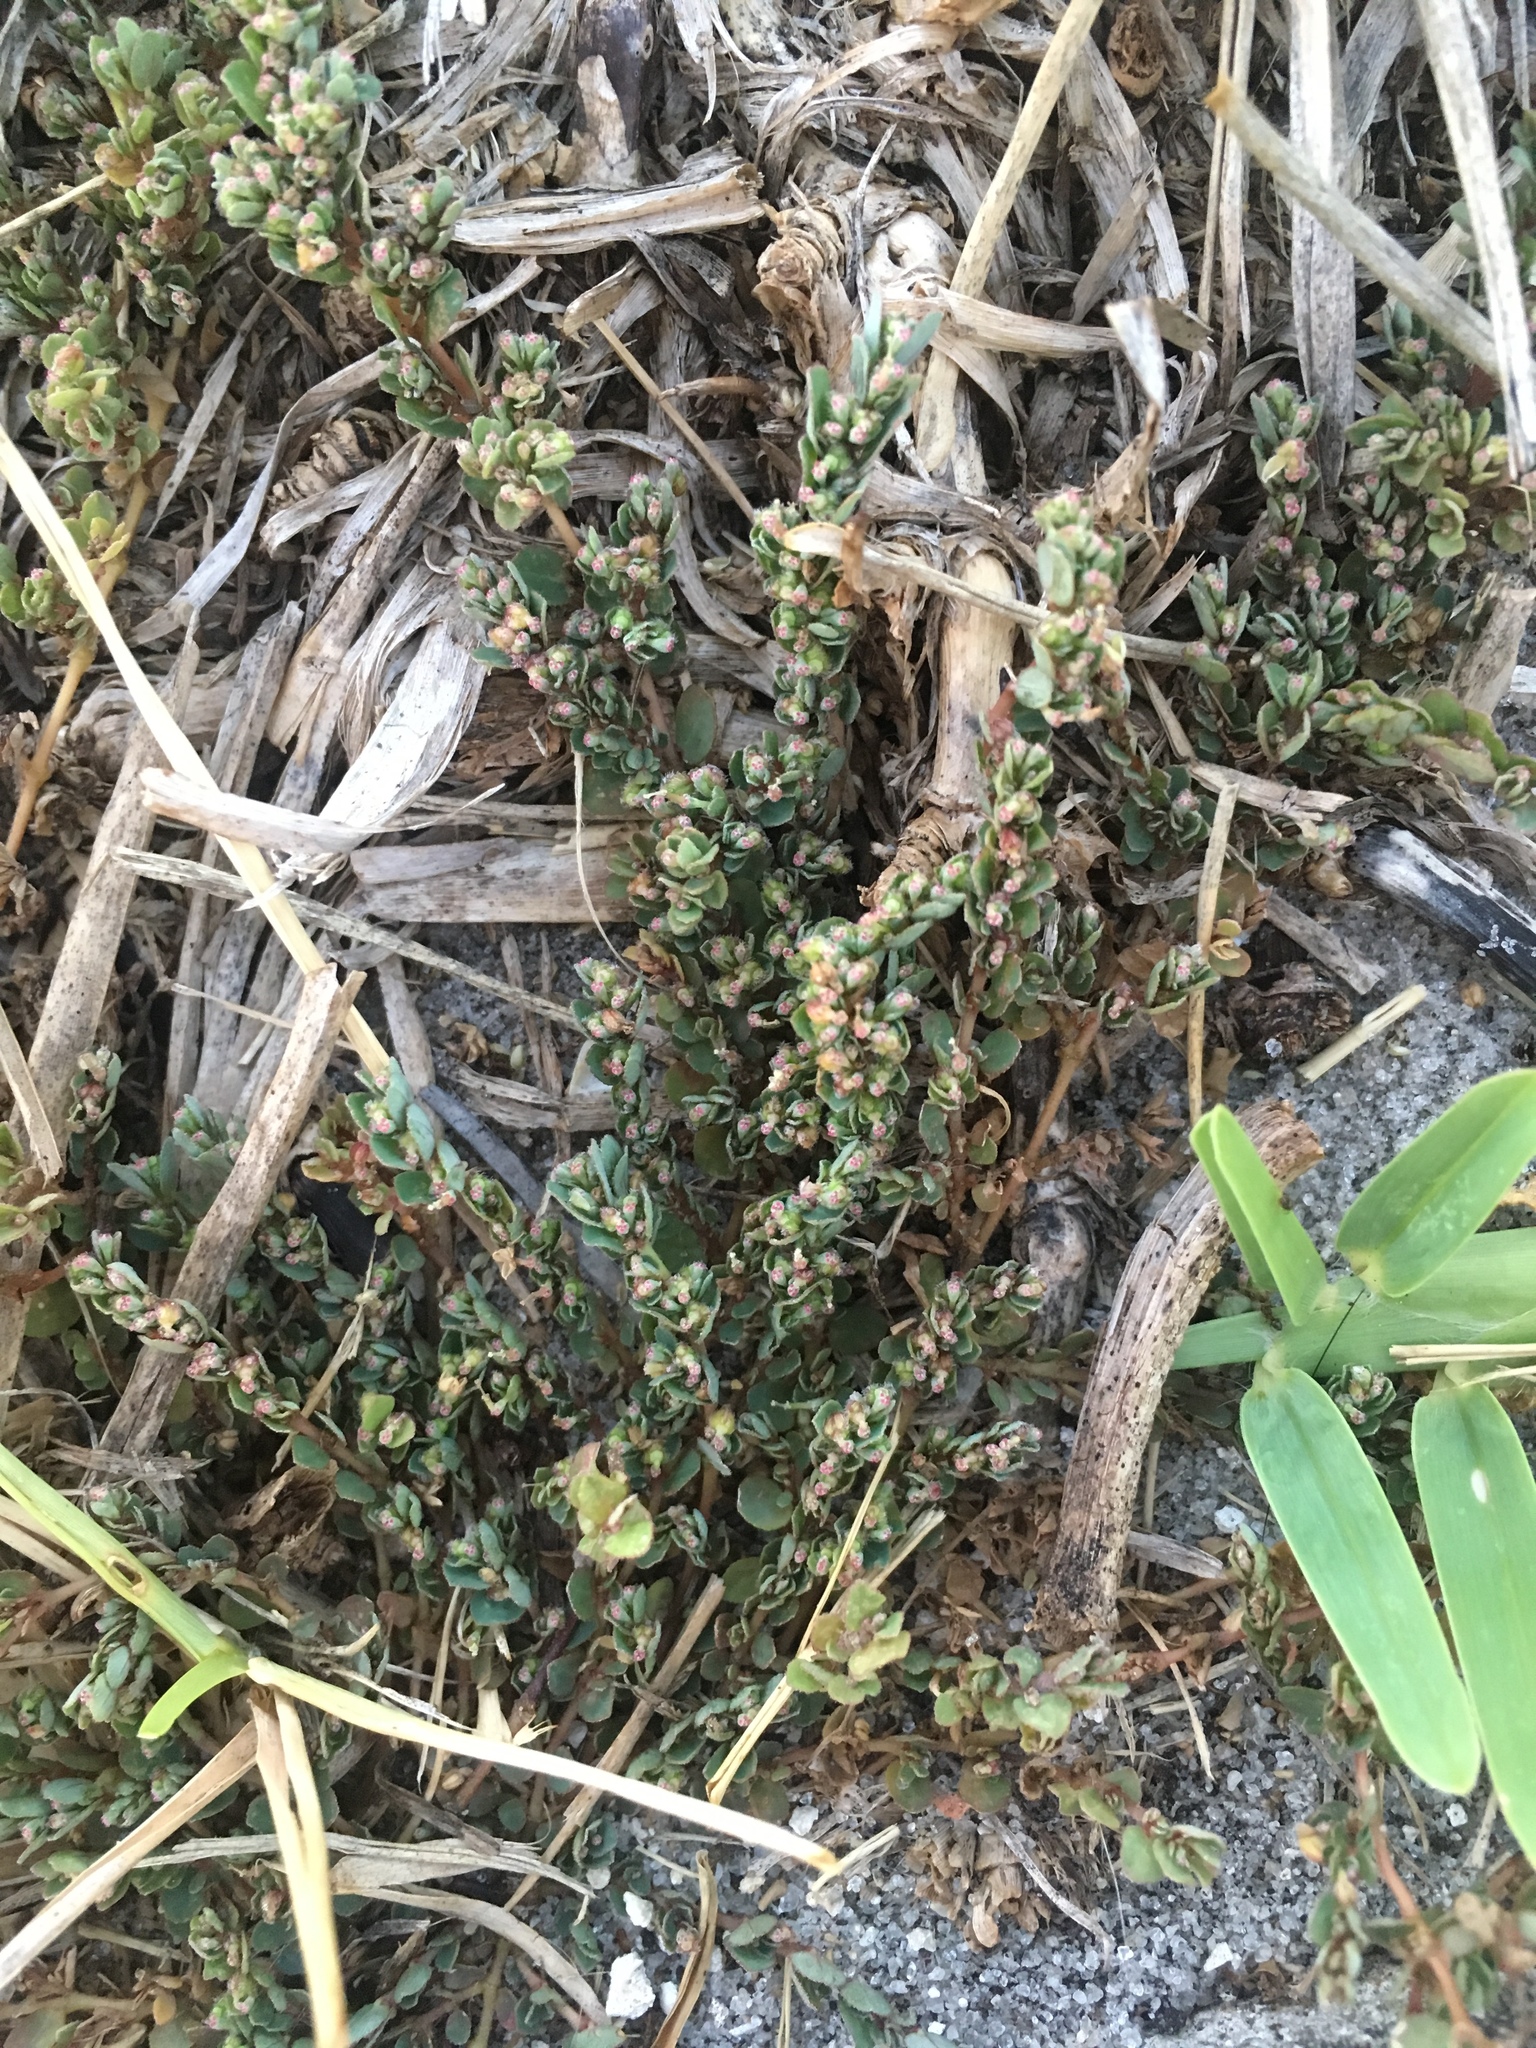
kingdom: Plantae
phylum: Tracheophyta
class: Magnoliopsida
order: Malpighiales
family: Euphorbiaceae
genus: Euphorbia
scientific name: Euphorbia prostrata
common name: Prostrate sandmat
